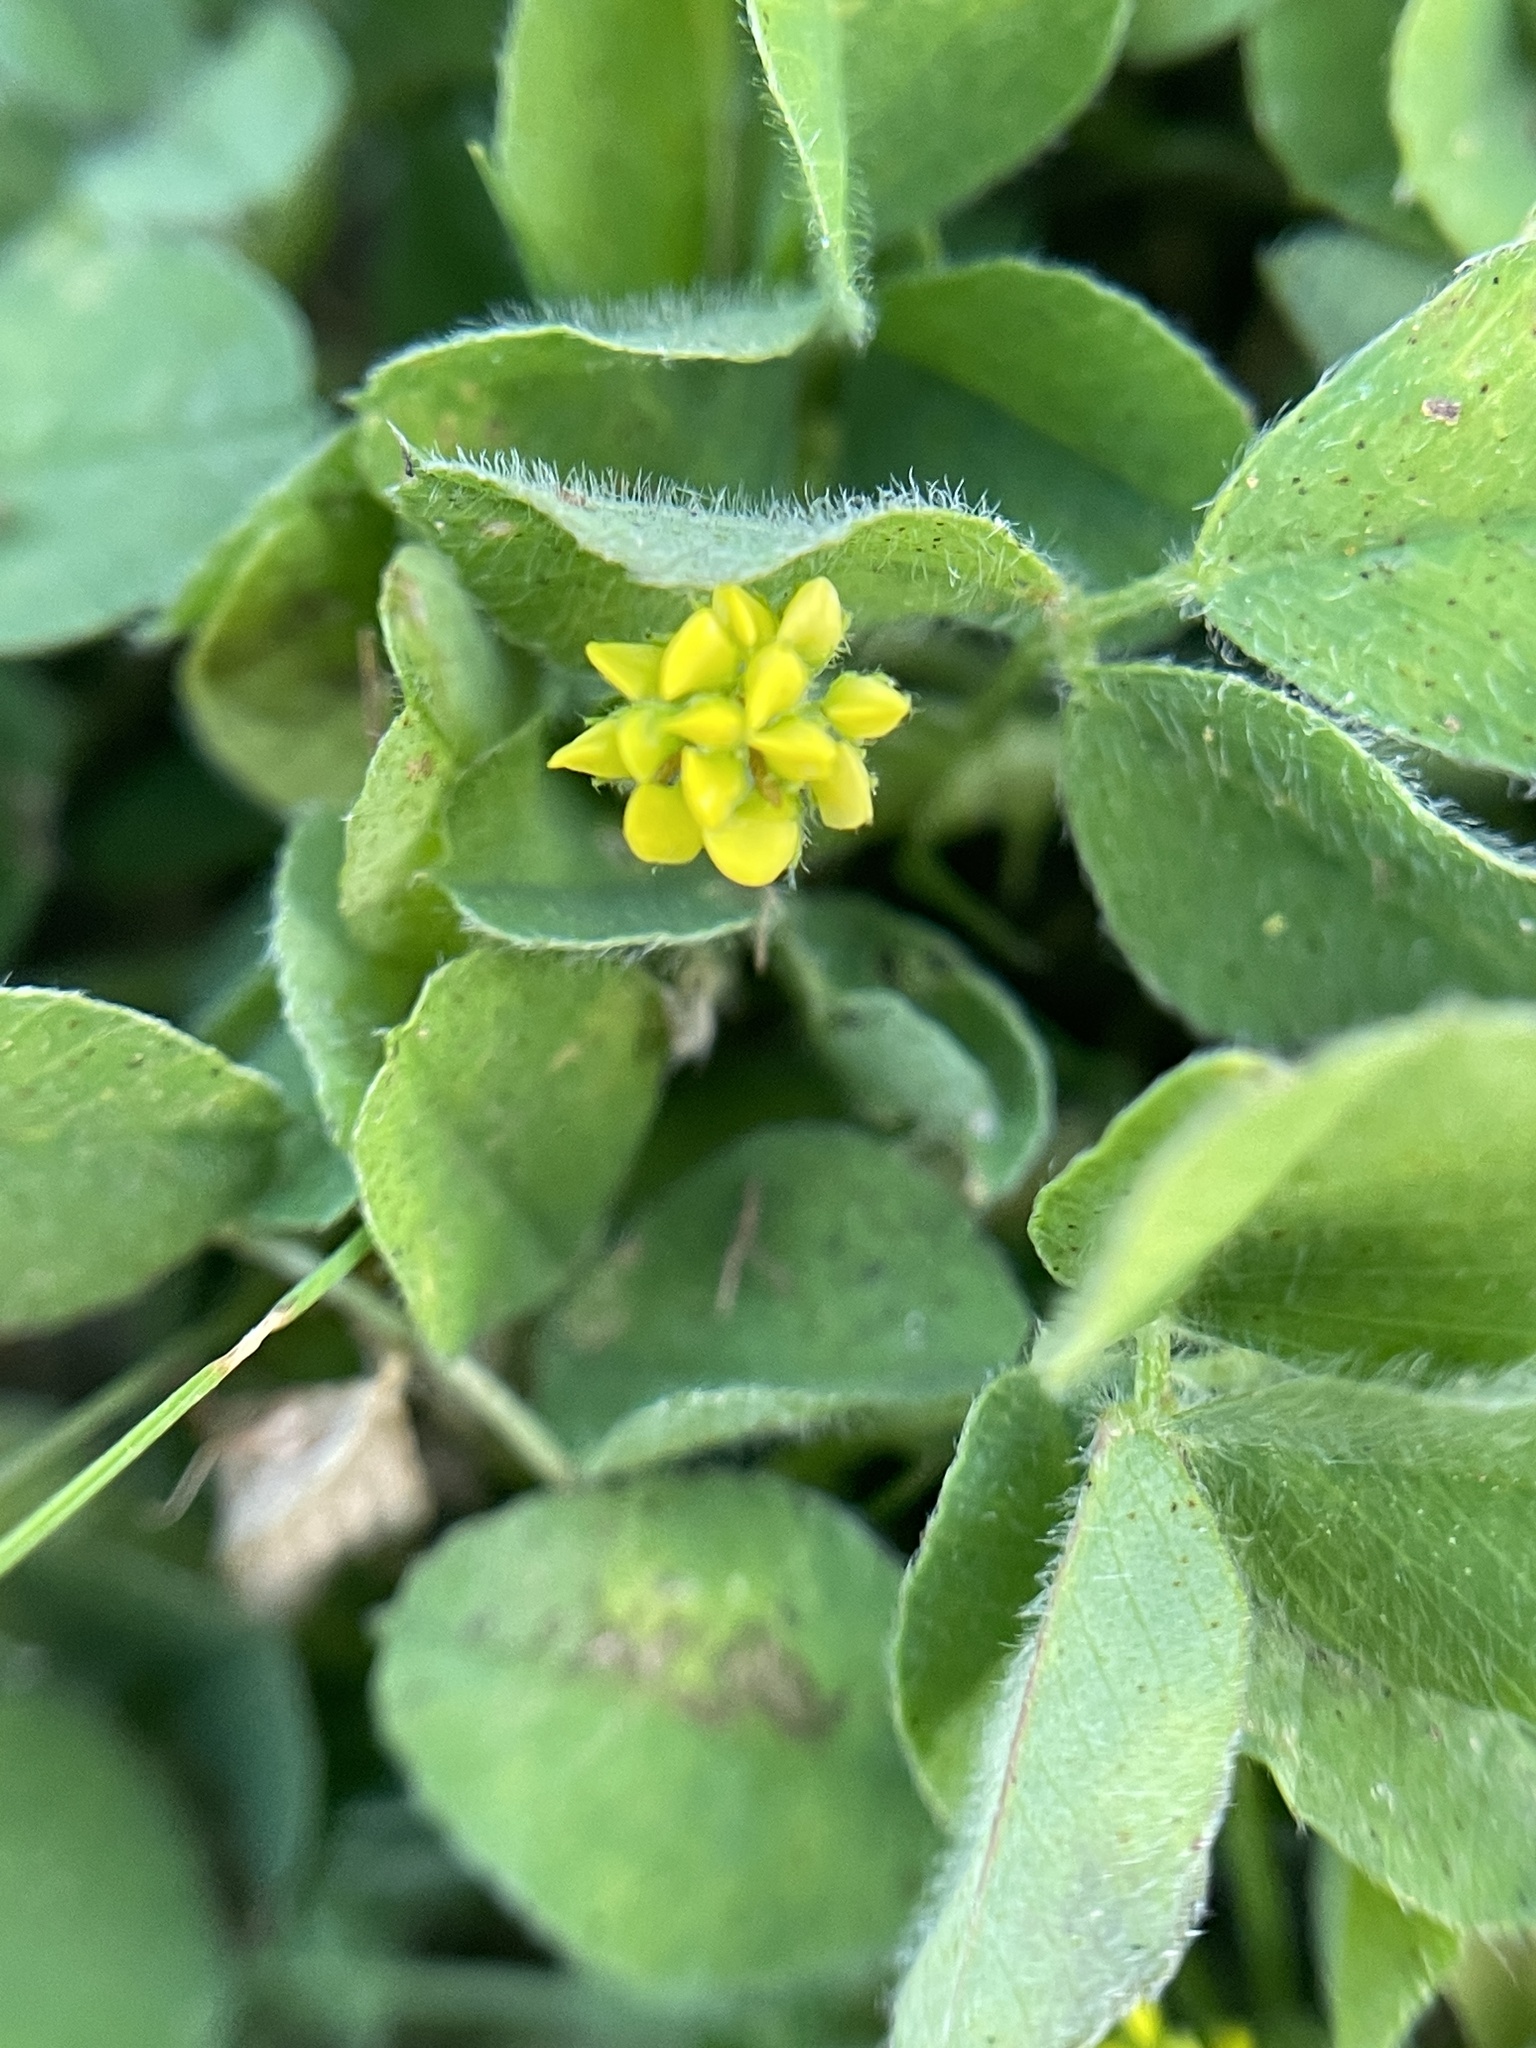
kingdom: Plantae
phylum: Tracheophyta
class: Magnoliopsida
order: Fabales
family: Fabaceae
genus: Medicago
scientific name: Medicago lupulina
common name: Black medick
